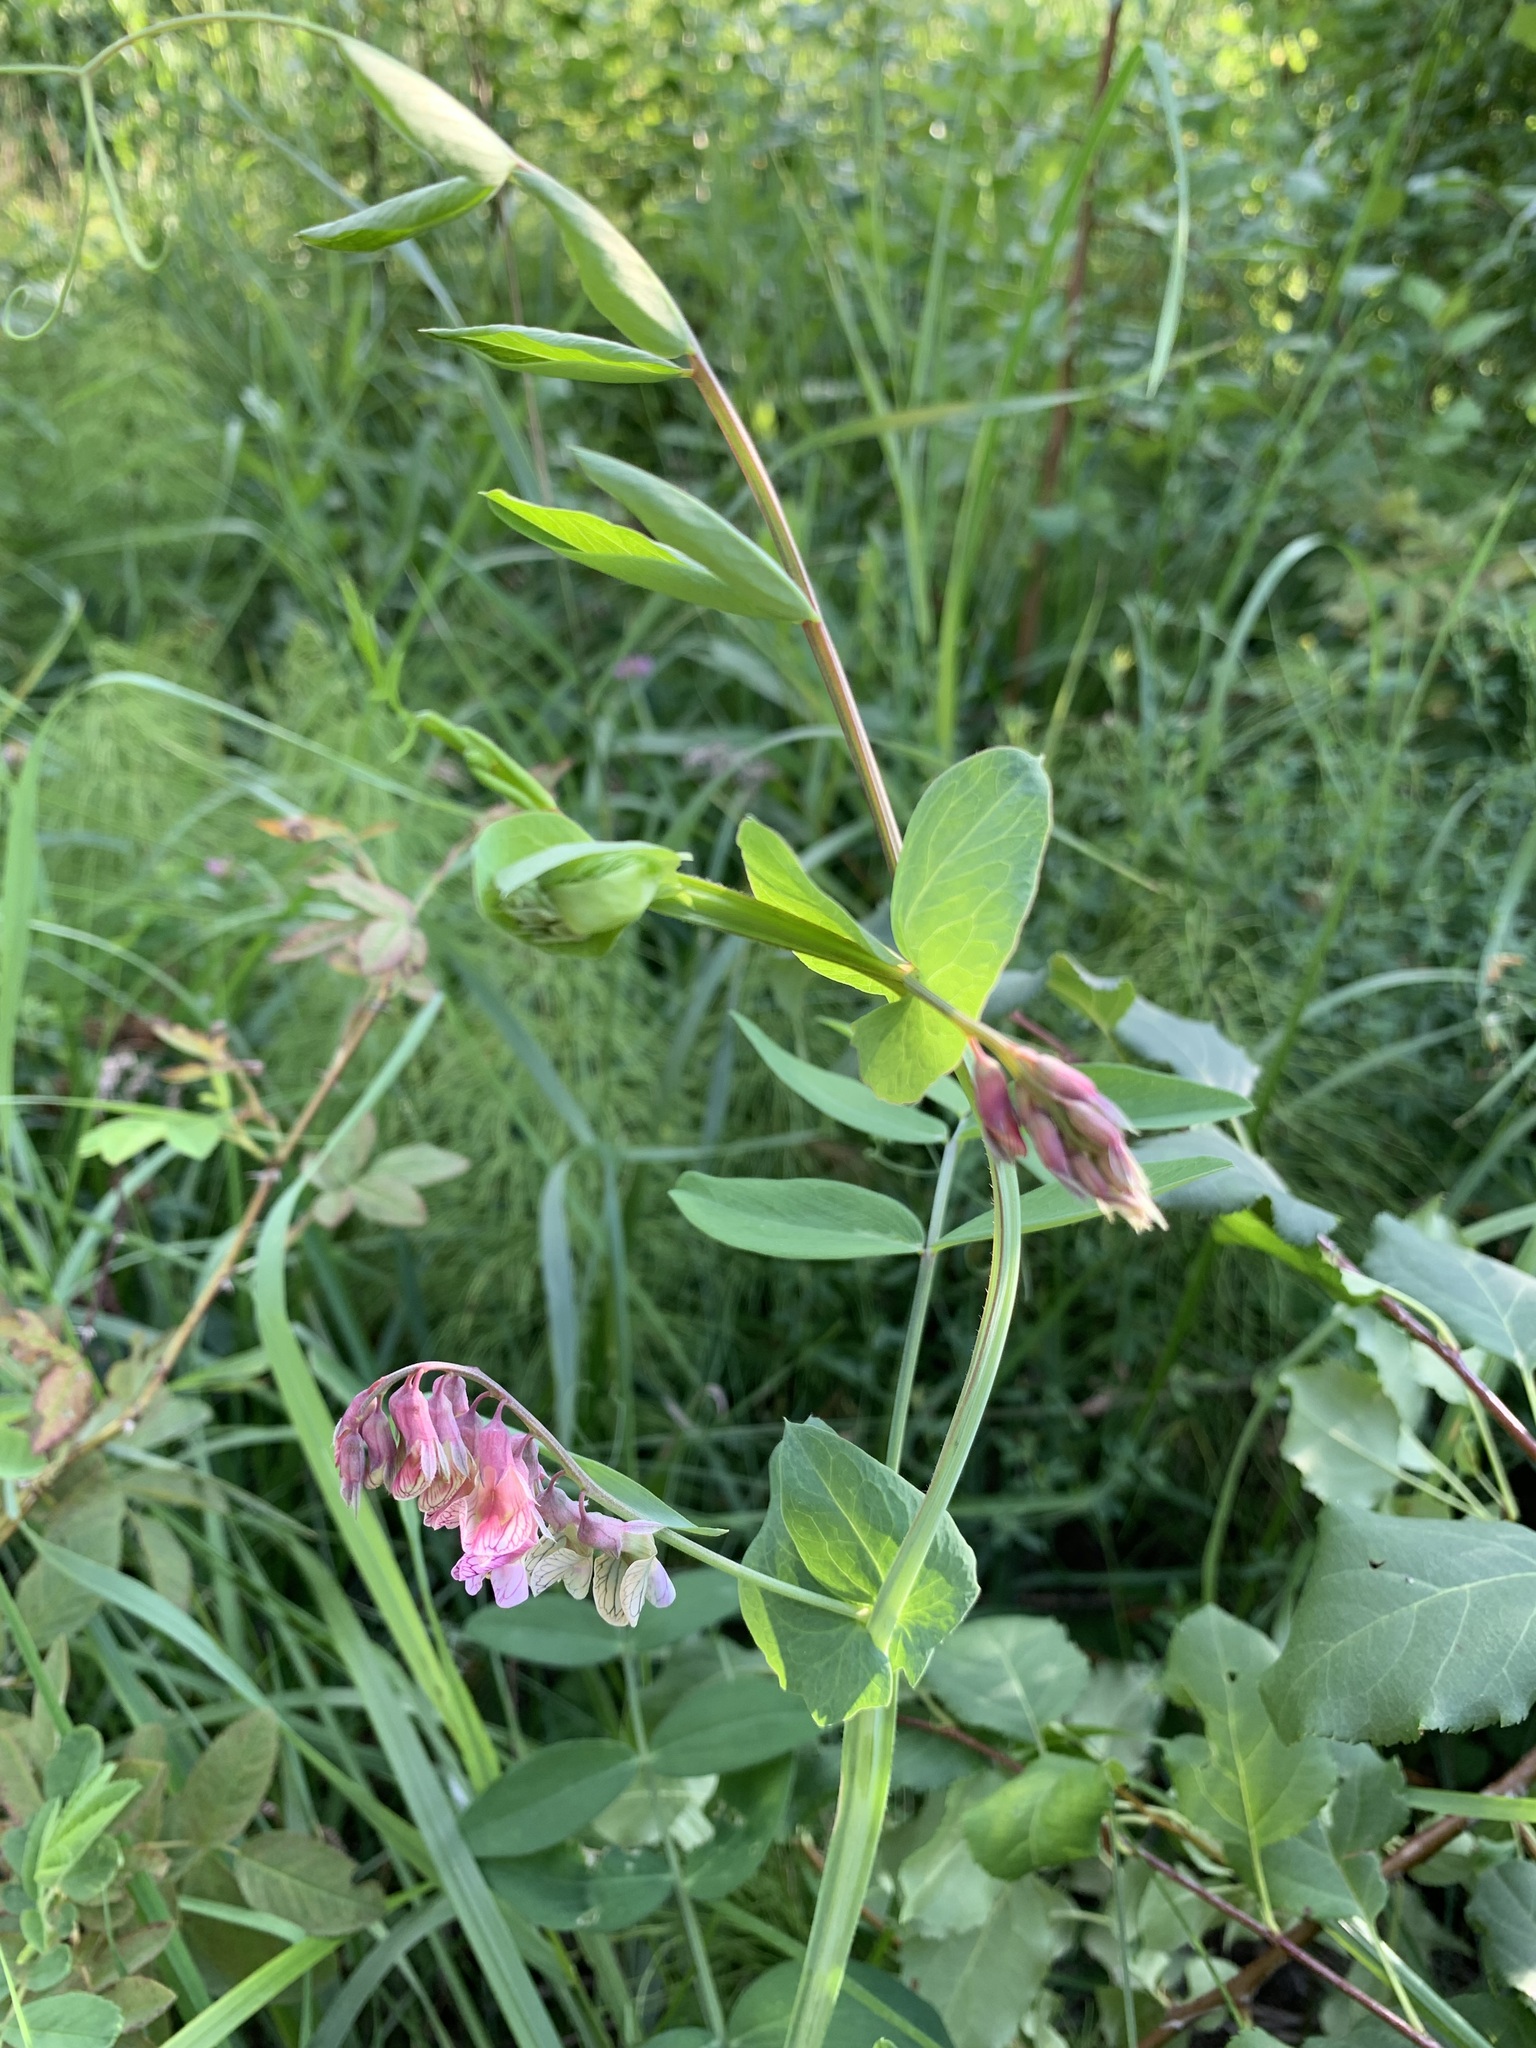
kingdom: Plantae
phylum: Tracheophyta
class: Magnoliopsida
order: Fabales
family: Fabaceae
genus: Lathyrus
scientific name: Lathyrus pisiformis
